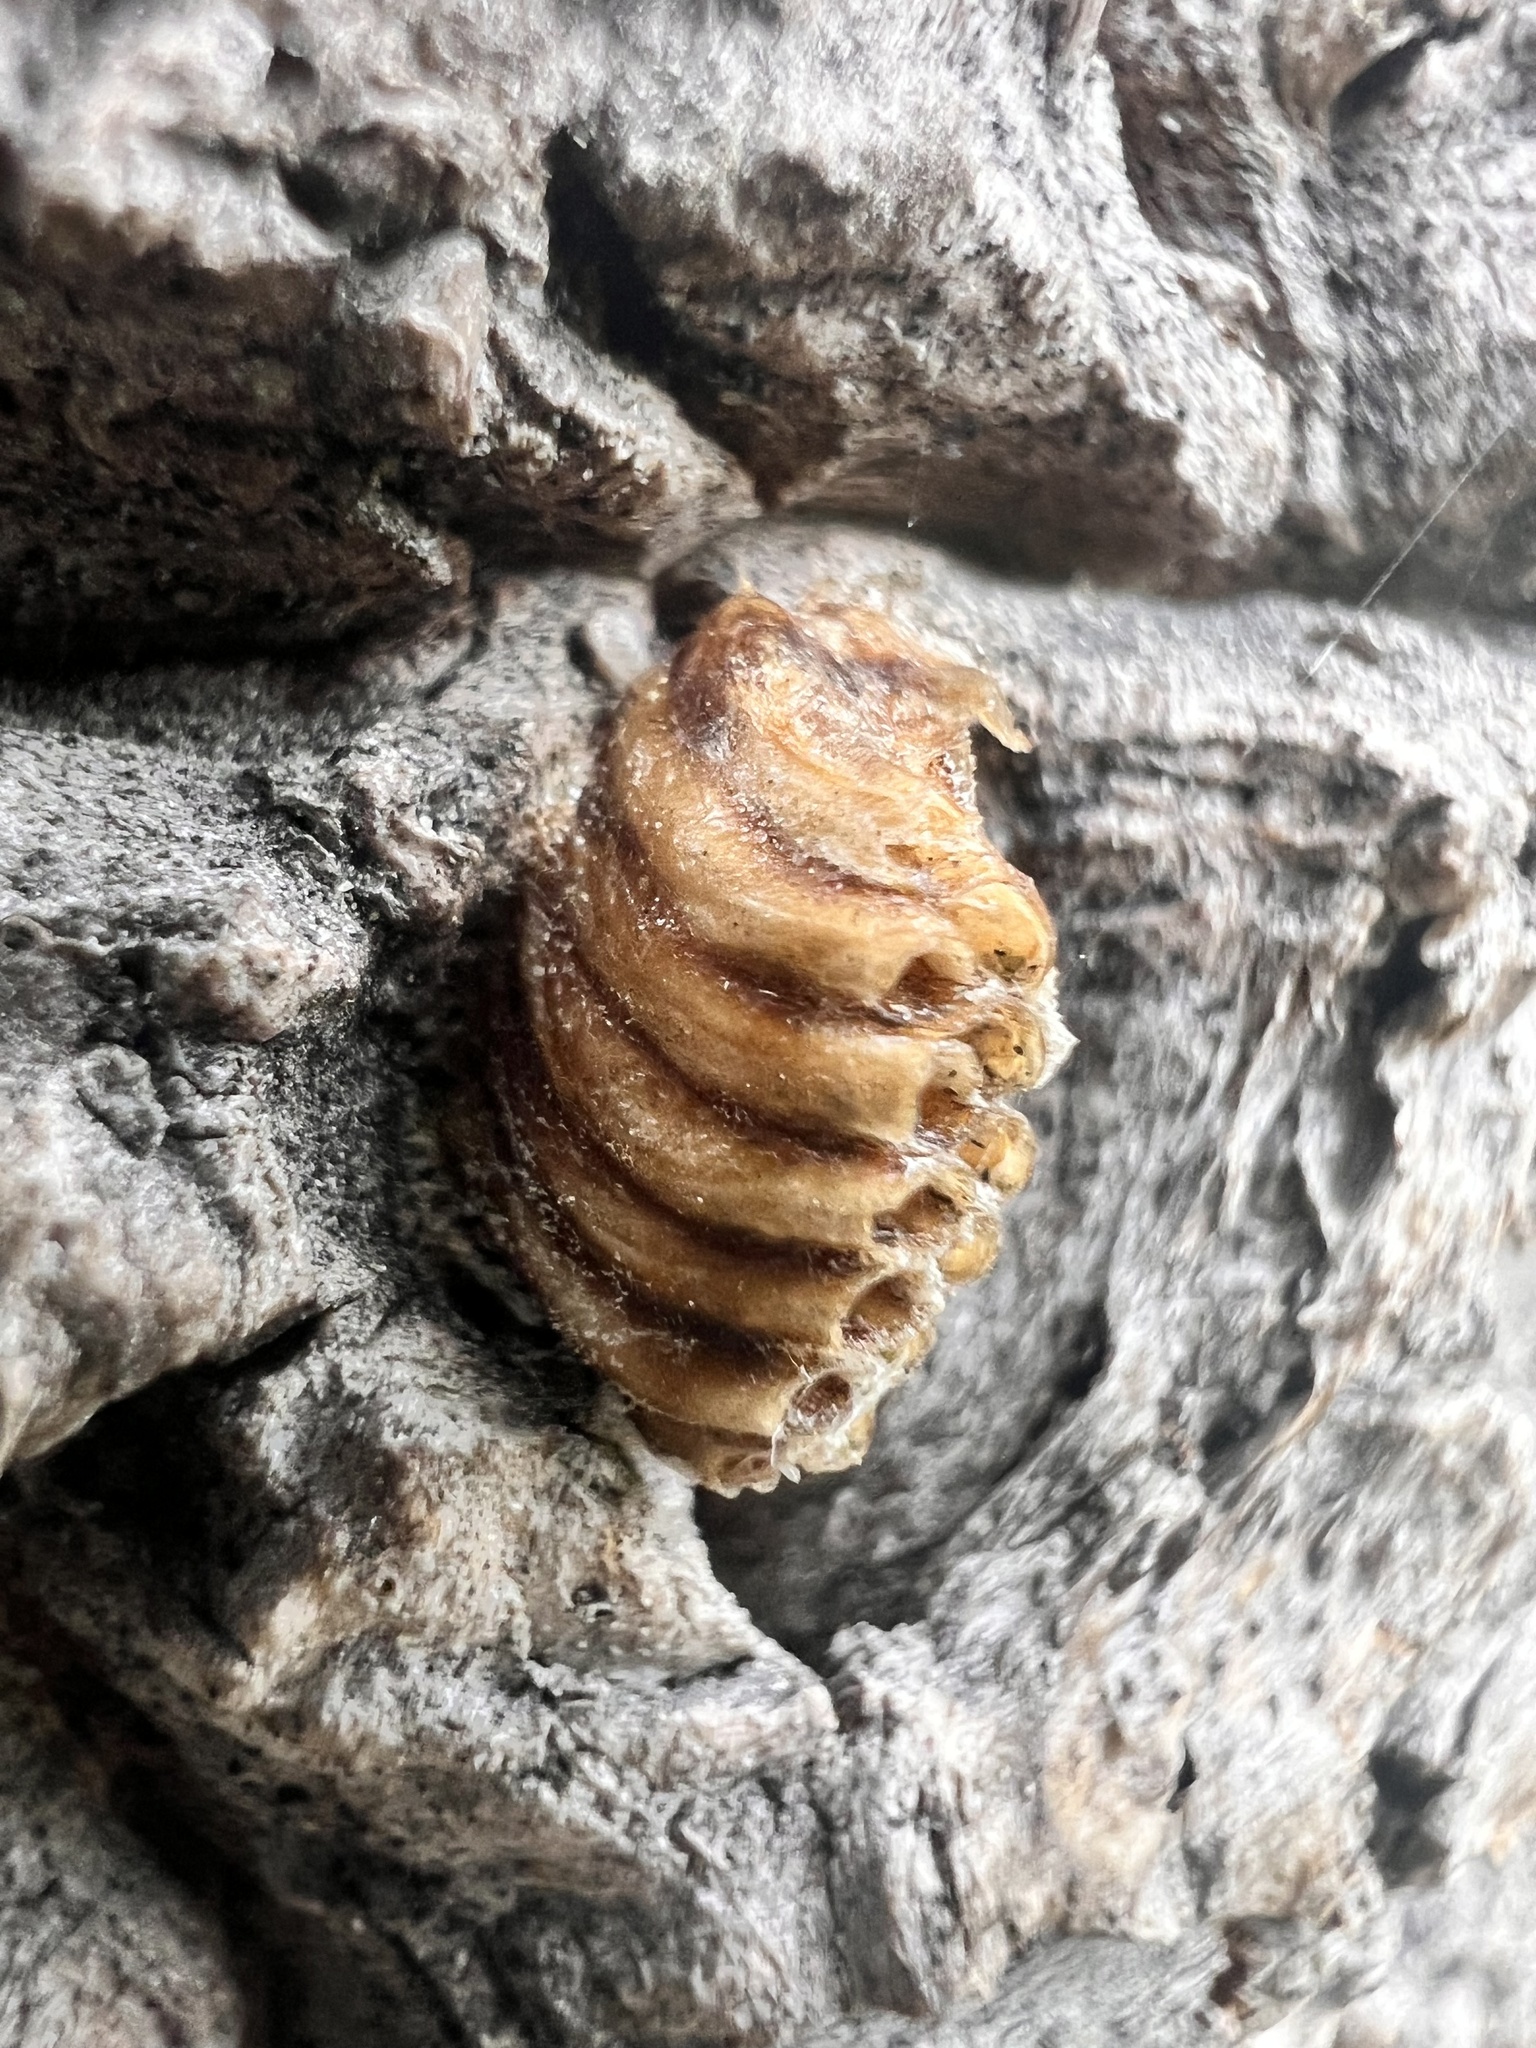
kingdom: Animalia
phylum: Arthropoda
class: Insecta
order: Mantodea
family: Mantidae
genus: Orthodera
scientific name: Orthodera novaezealandiae
